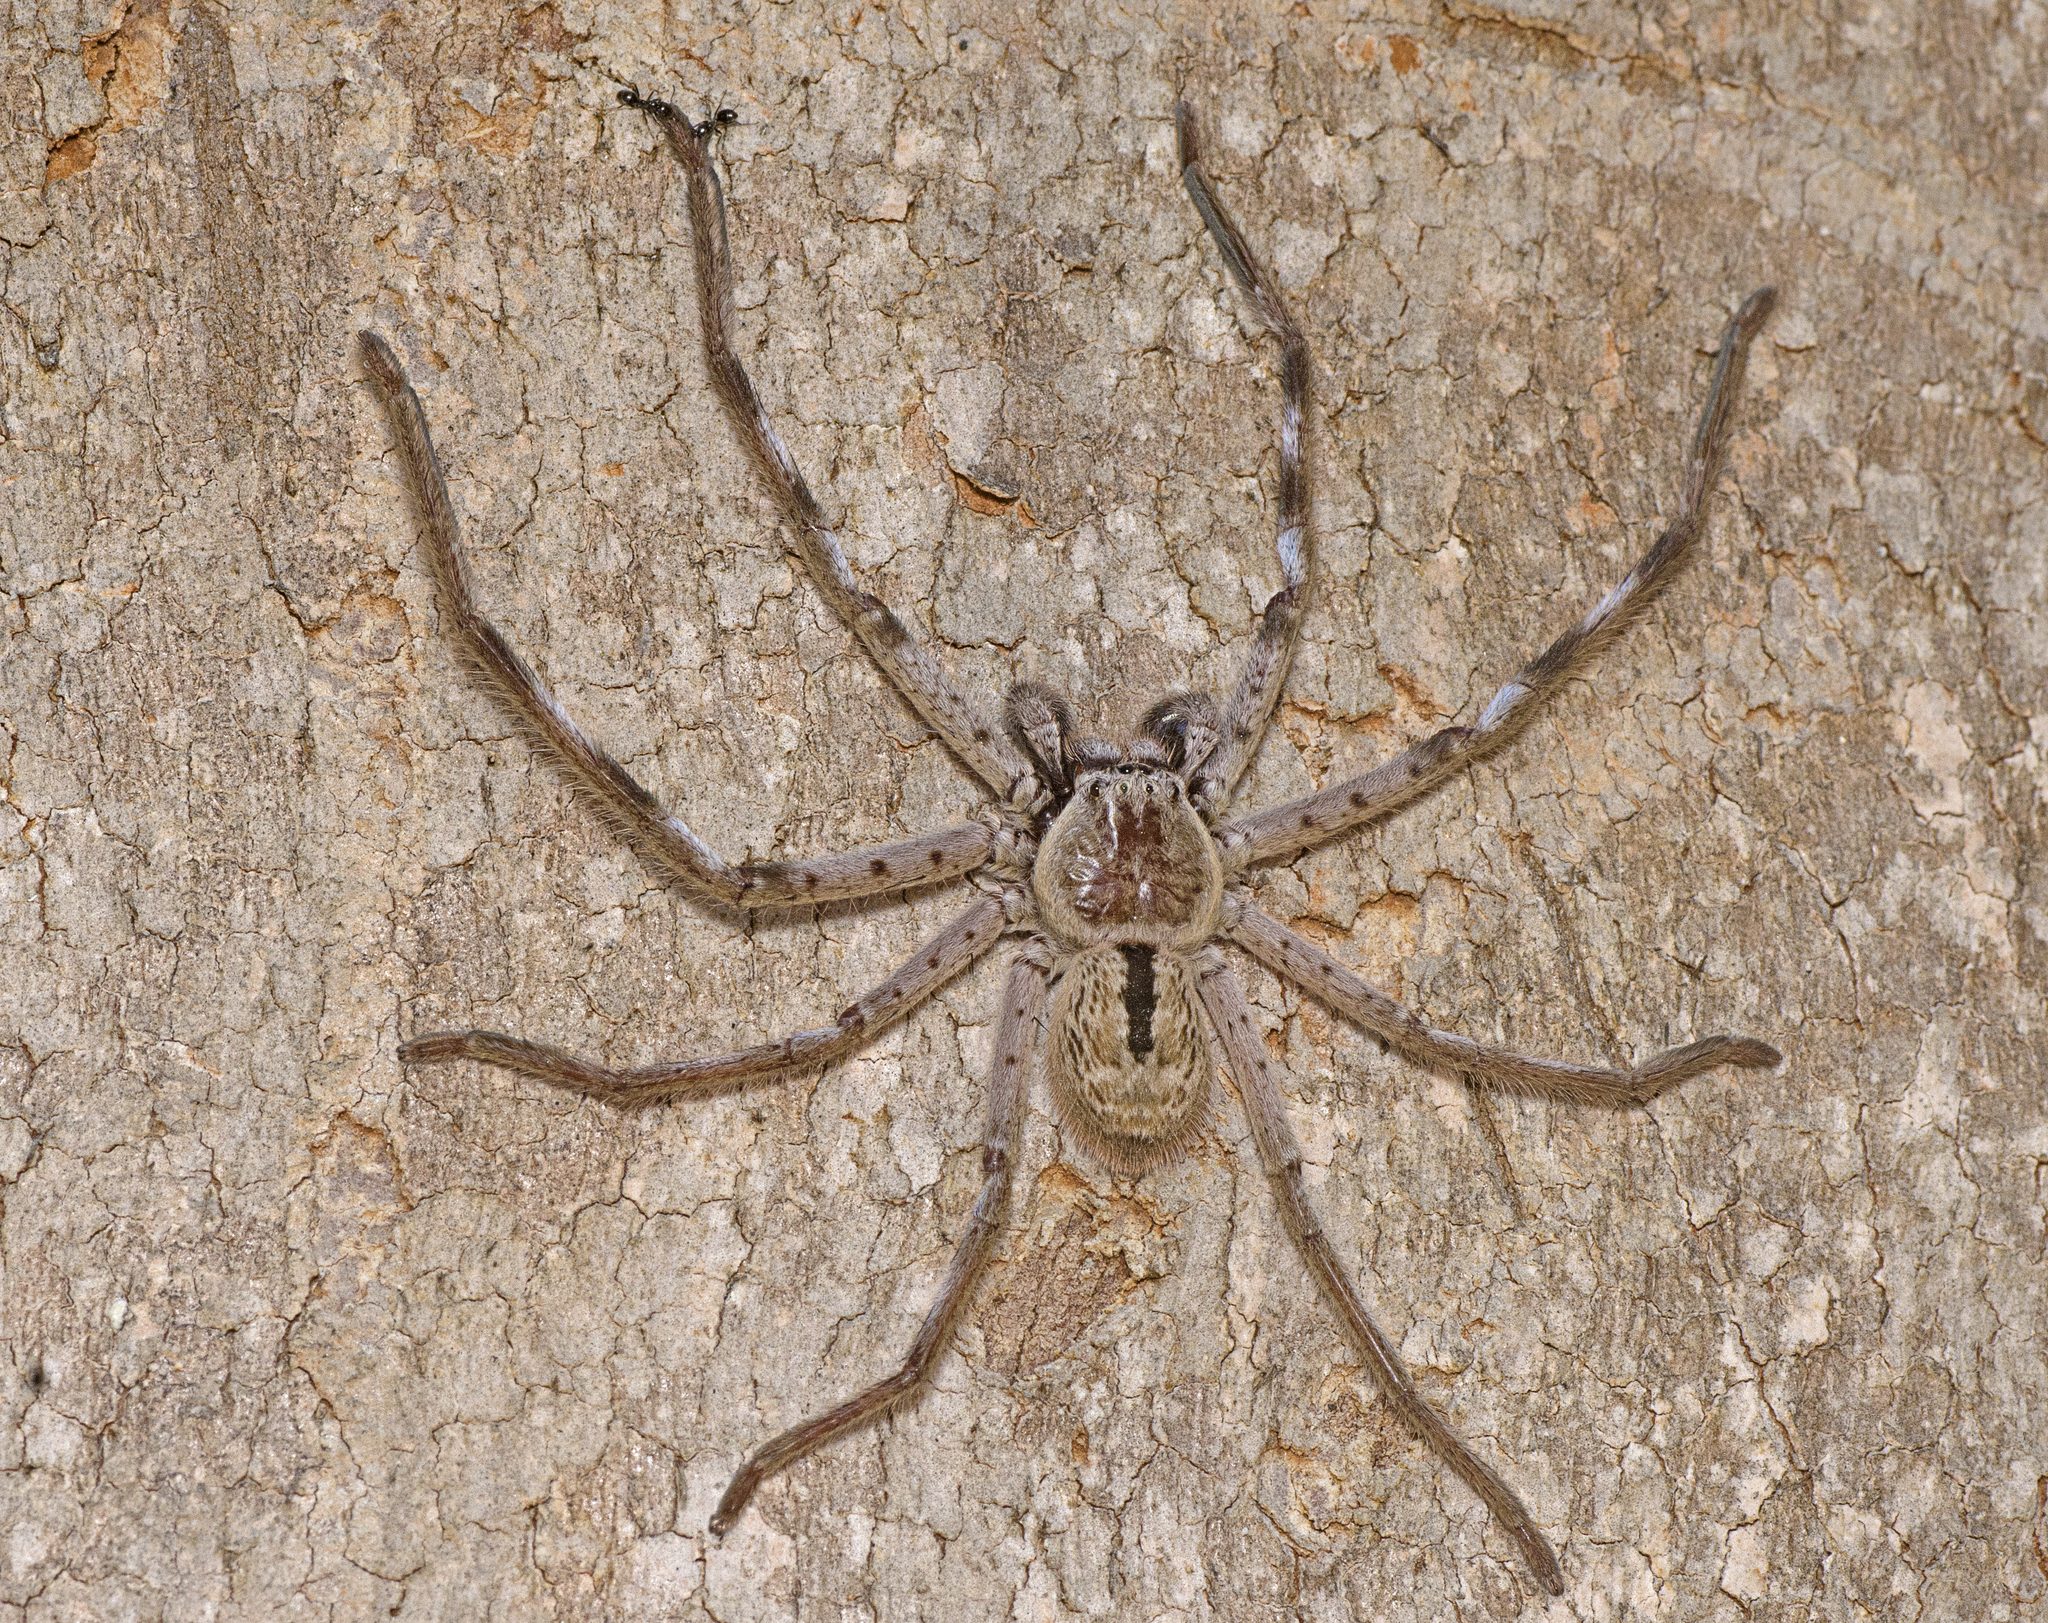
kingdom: Animalia
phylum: Arthropoda
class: Arachnida
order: Araneae
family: Sparassidae
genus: Holconia
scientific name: Holconia immanis
